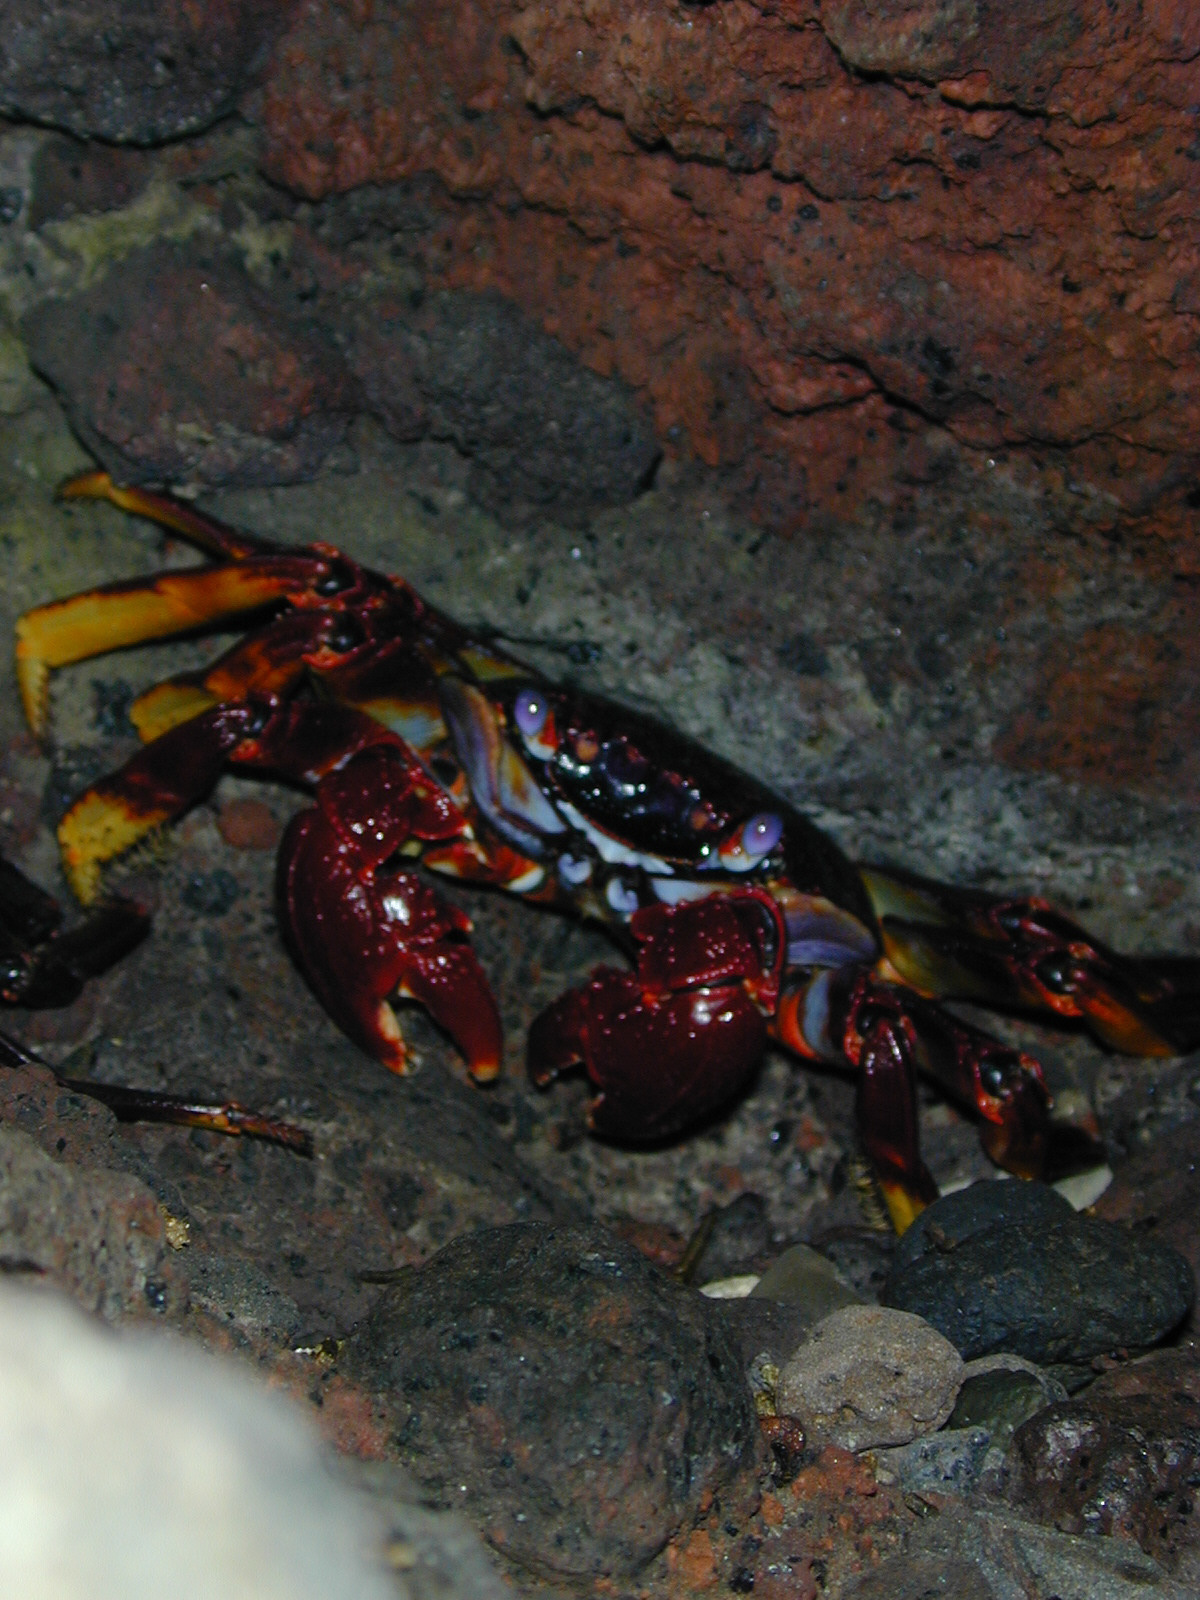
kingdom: Animalia
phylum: Arthropoda
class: Malacostraca
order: Decapoda
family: Grapsidae
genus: Grapsus
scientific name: Grapsus adscensionis
